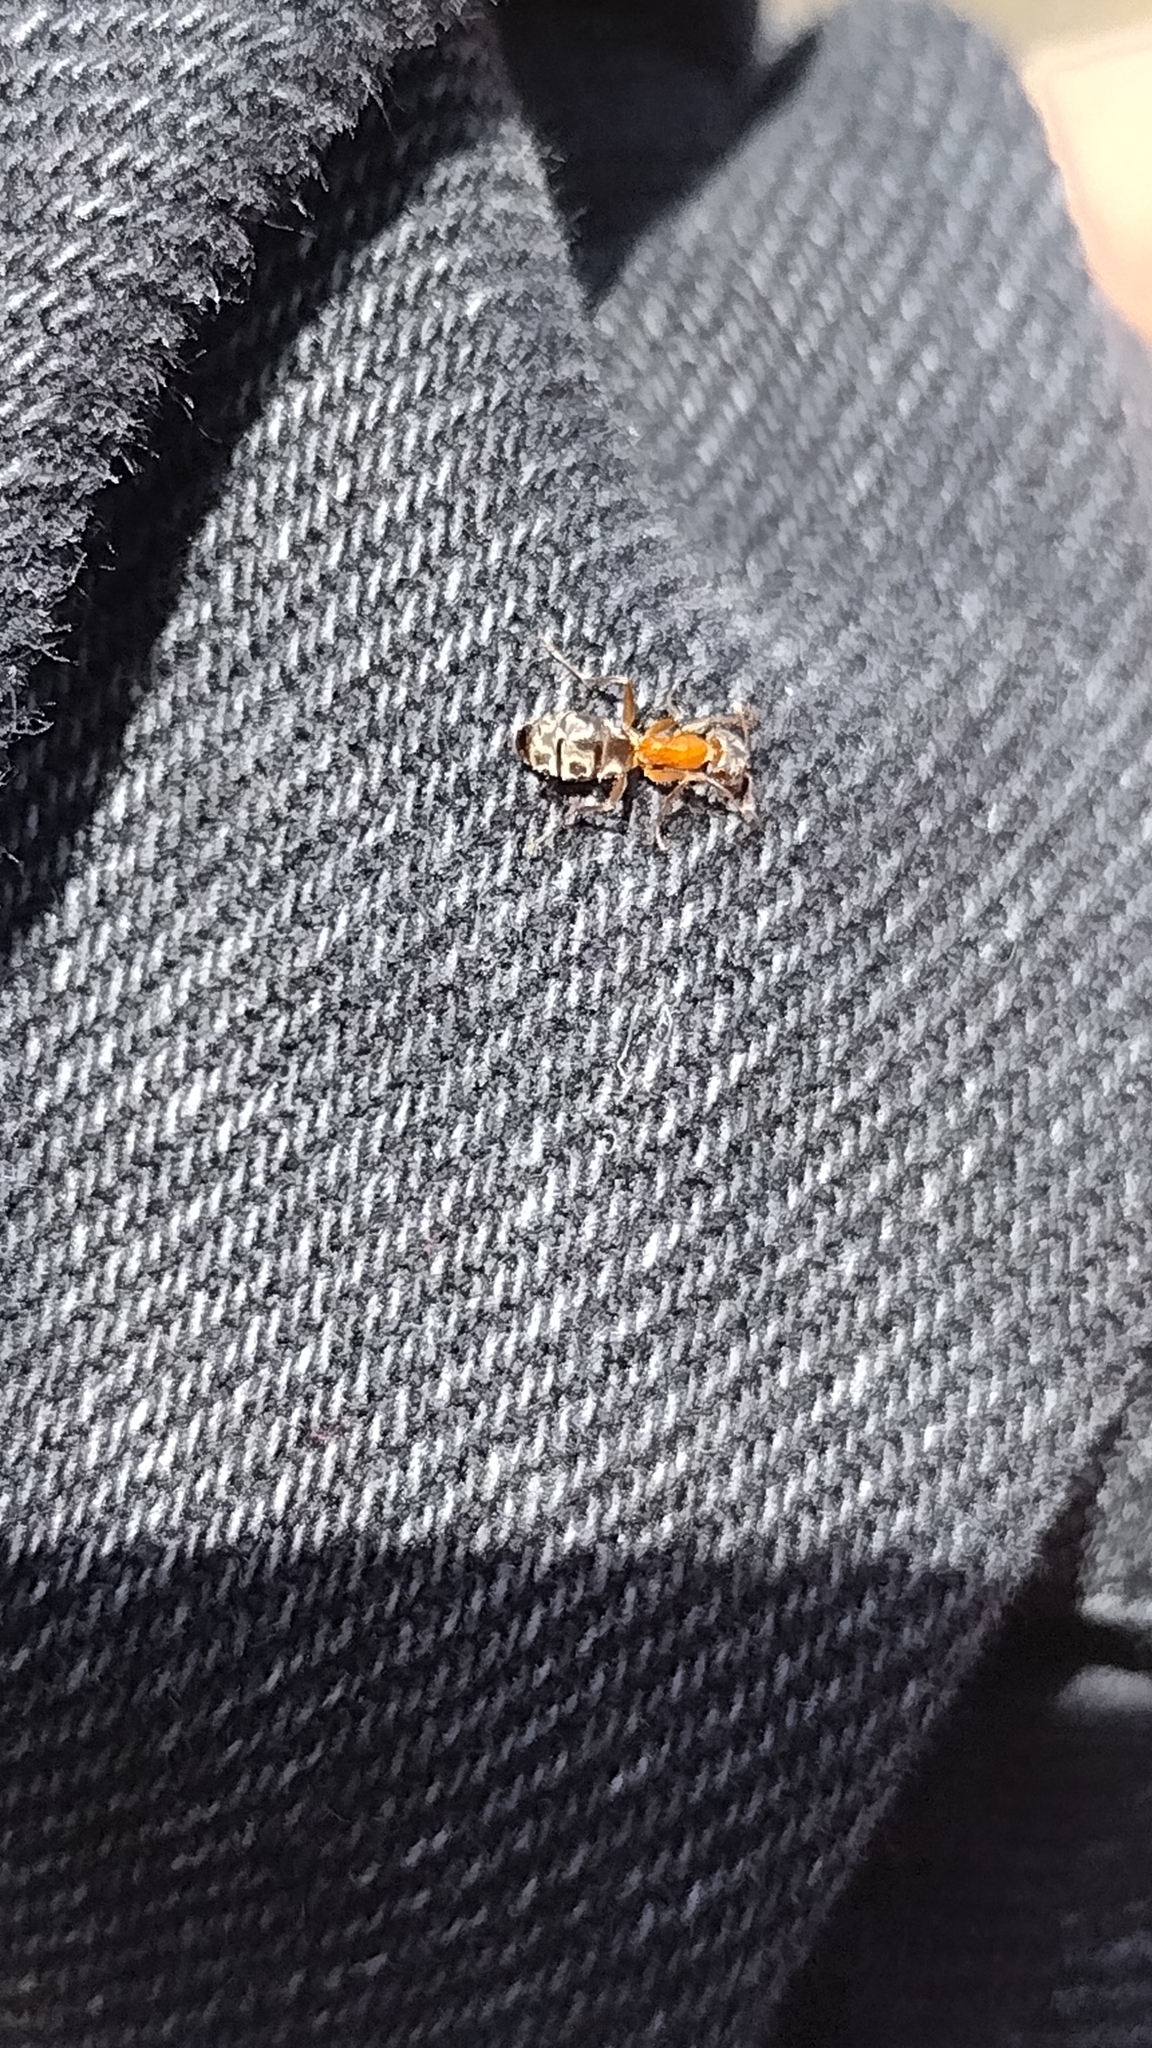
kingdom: Animalia
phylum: Arthropoda
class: Insecta
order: Hymenoptera
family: Formicidae
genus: Liometopum
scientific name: Liometopum occidentale
